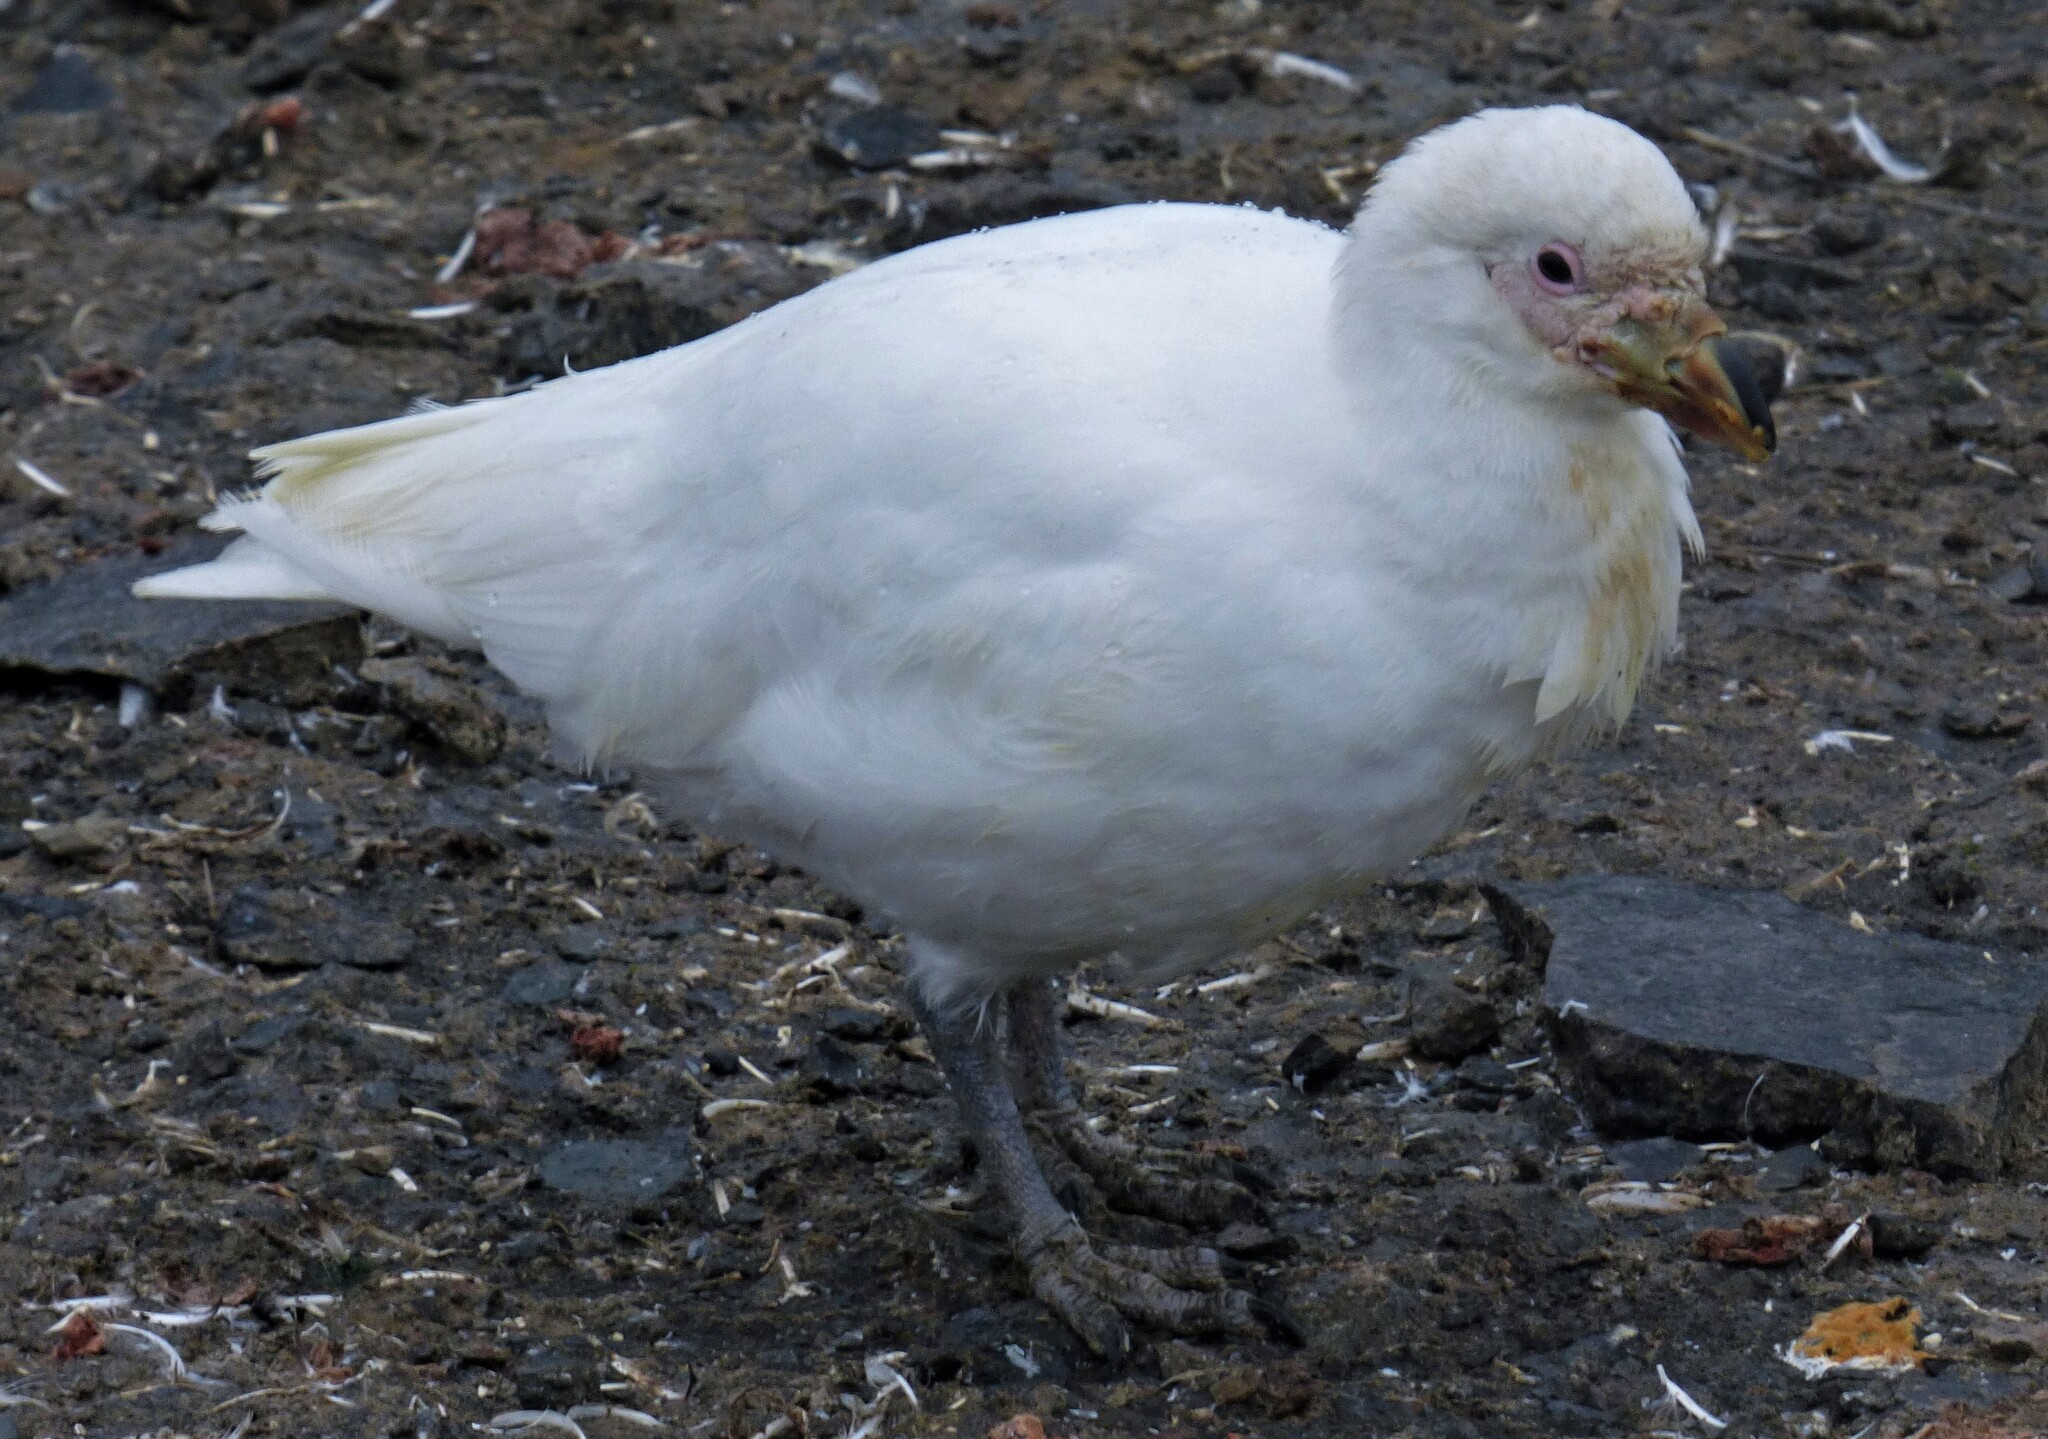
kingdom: Animalia
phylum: Chordata
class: Aves
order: Charadriiformes
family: Chionidae
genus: Chionis
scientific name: Chionis albus
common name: Snowy sheathbill
